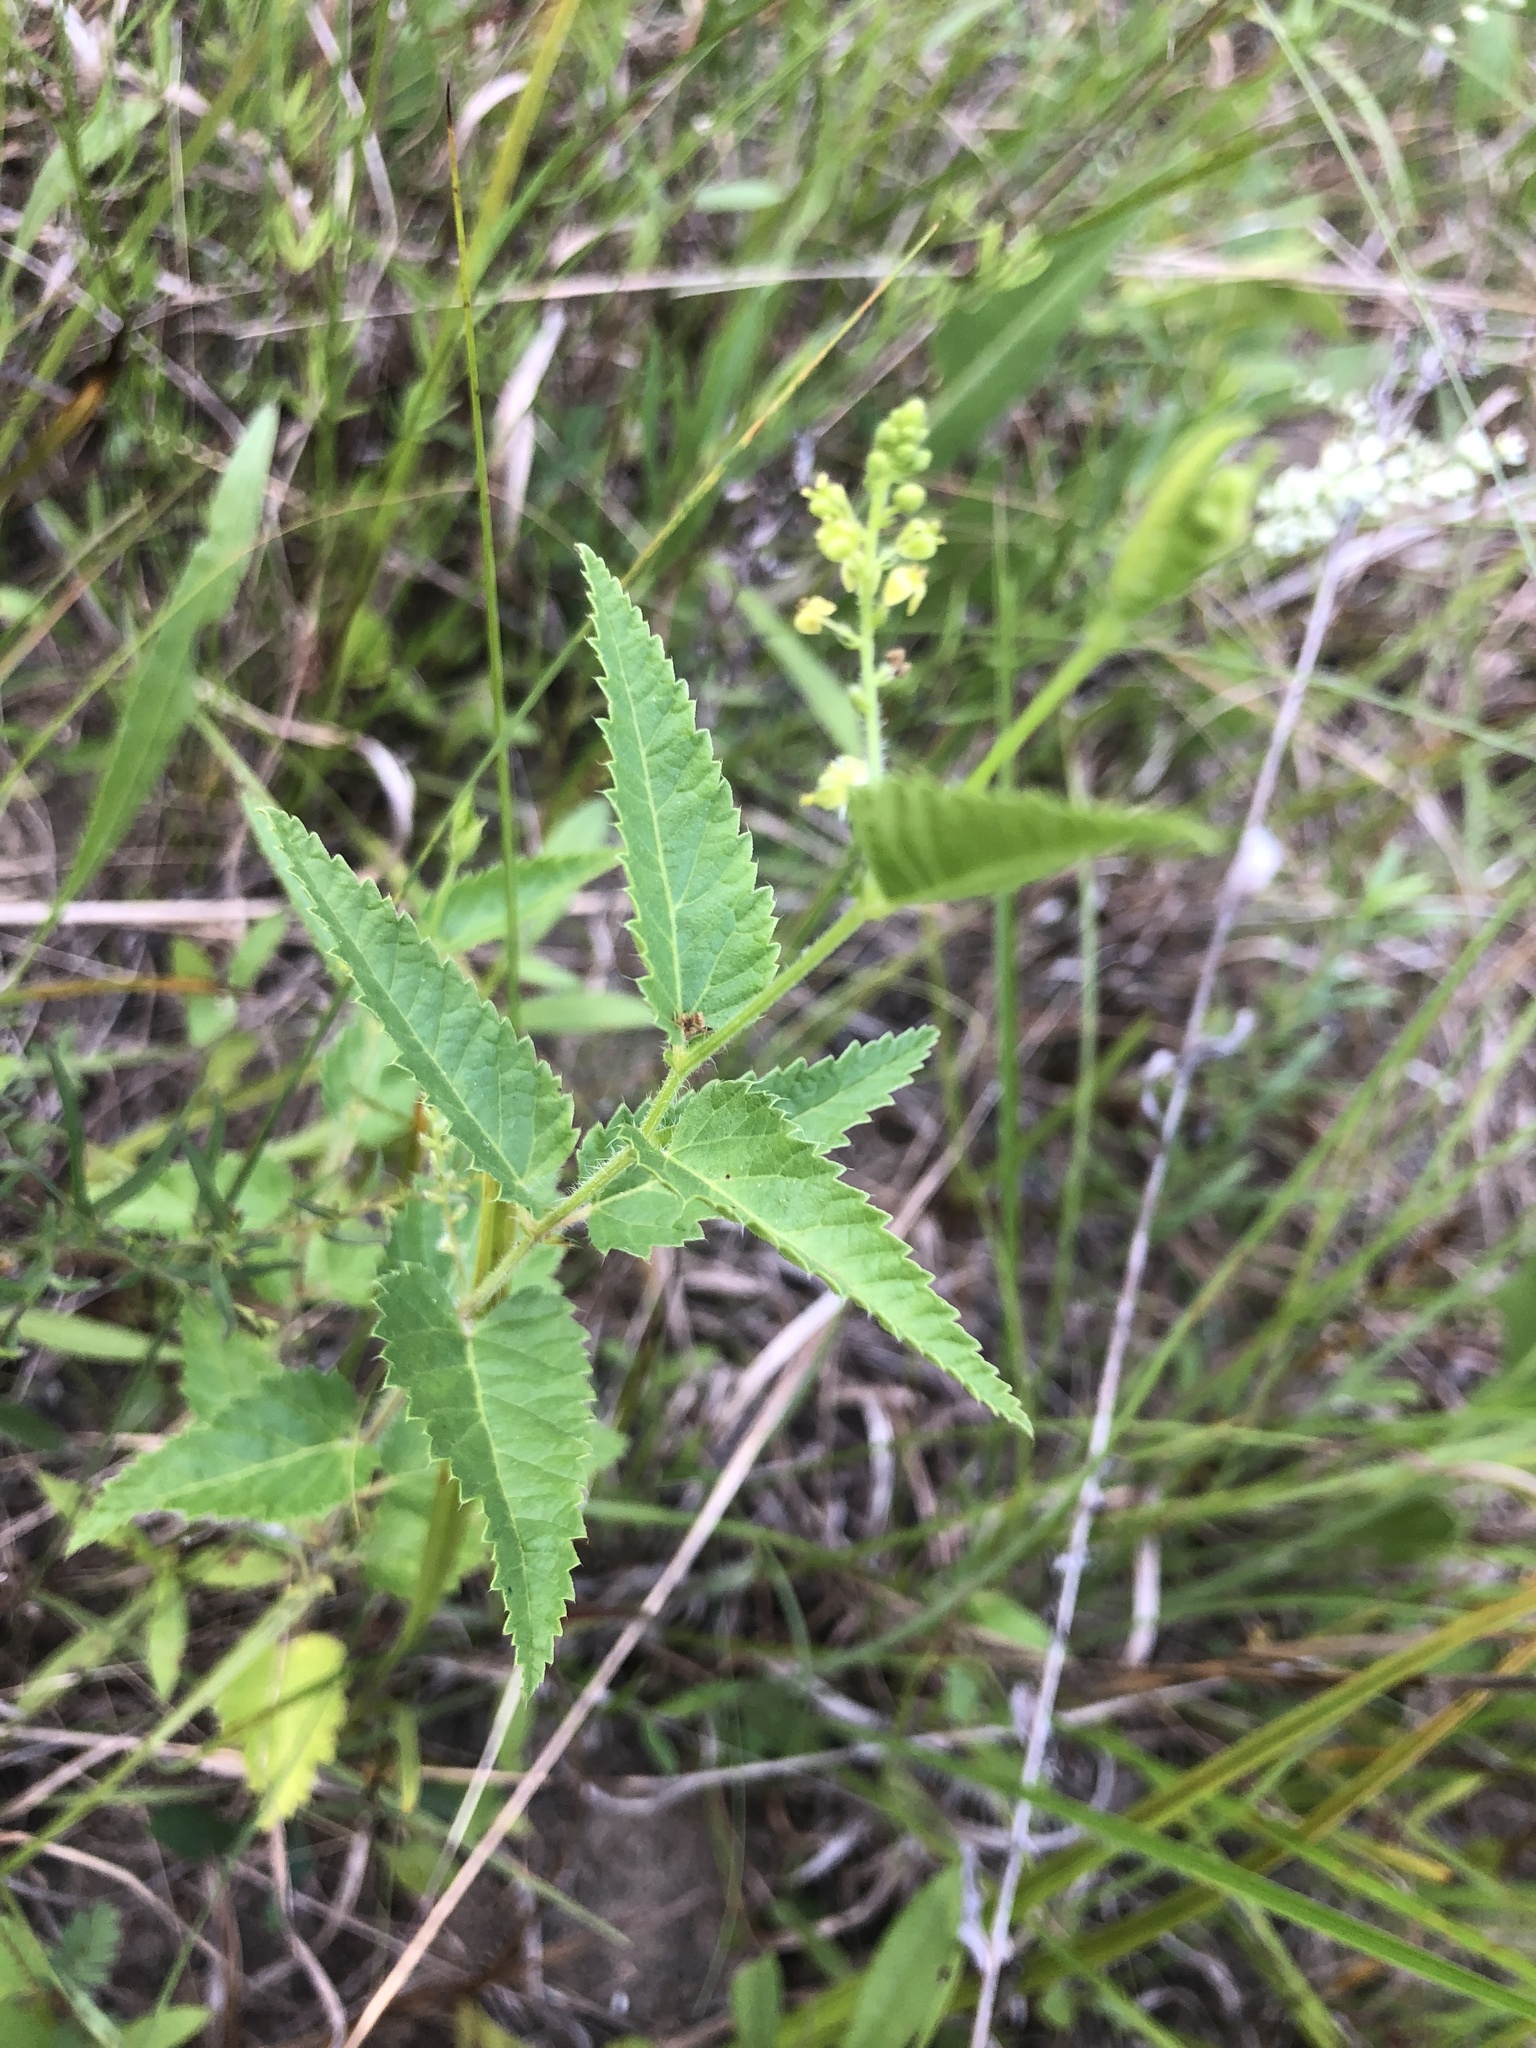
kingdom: Plantae
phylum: Tracheophyta
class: Magnoliopsida
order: Malpighiales
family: Euphorbiaceae
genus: Tragia
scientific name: Tragia urticifolia
